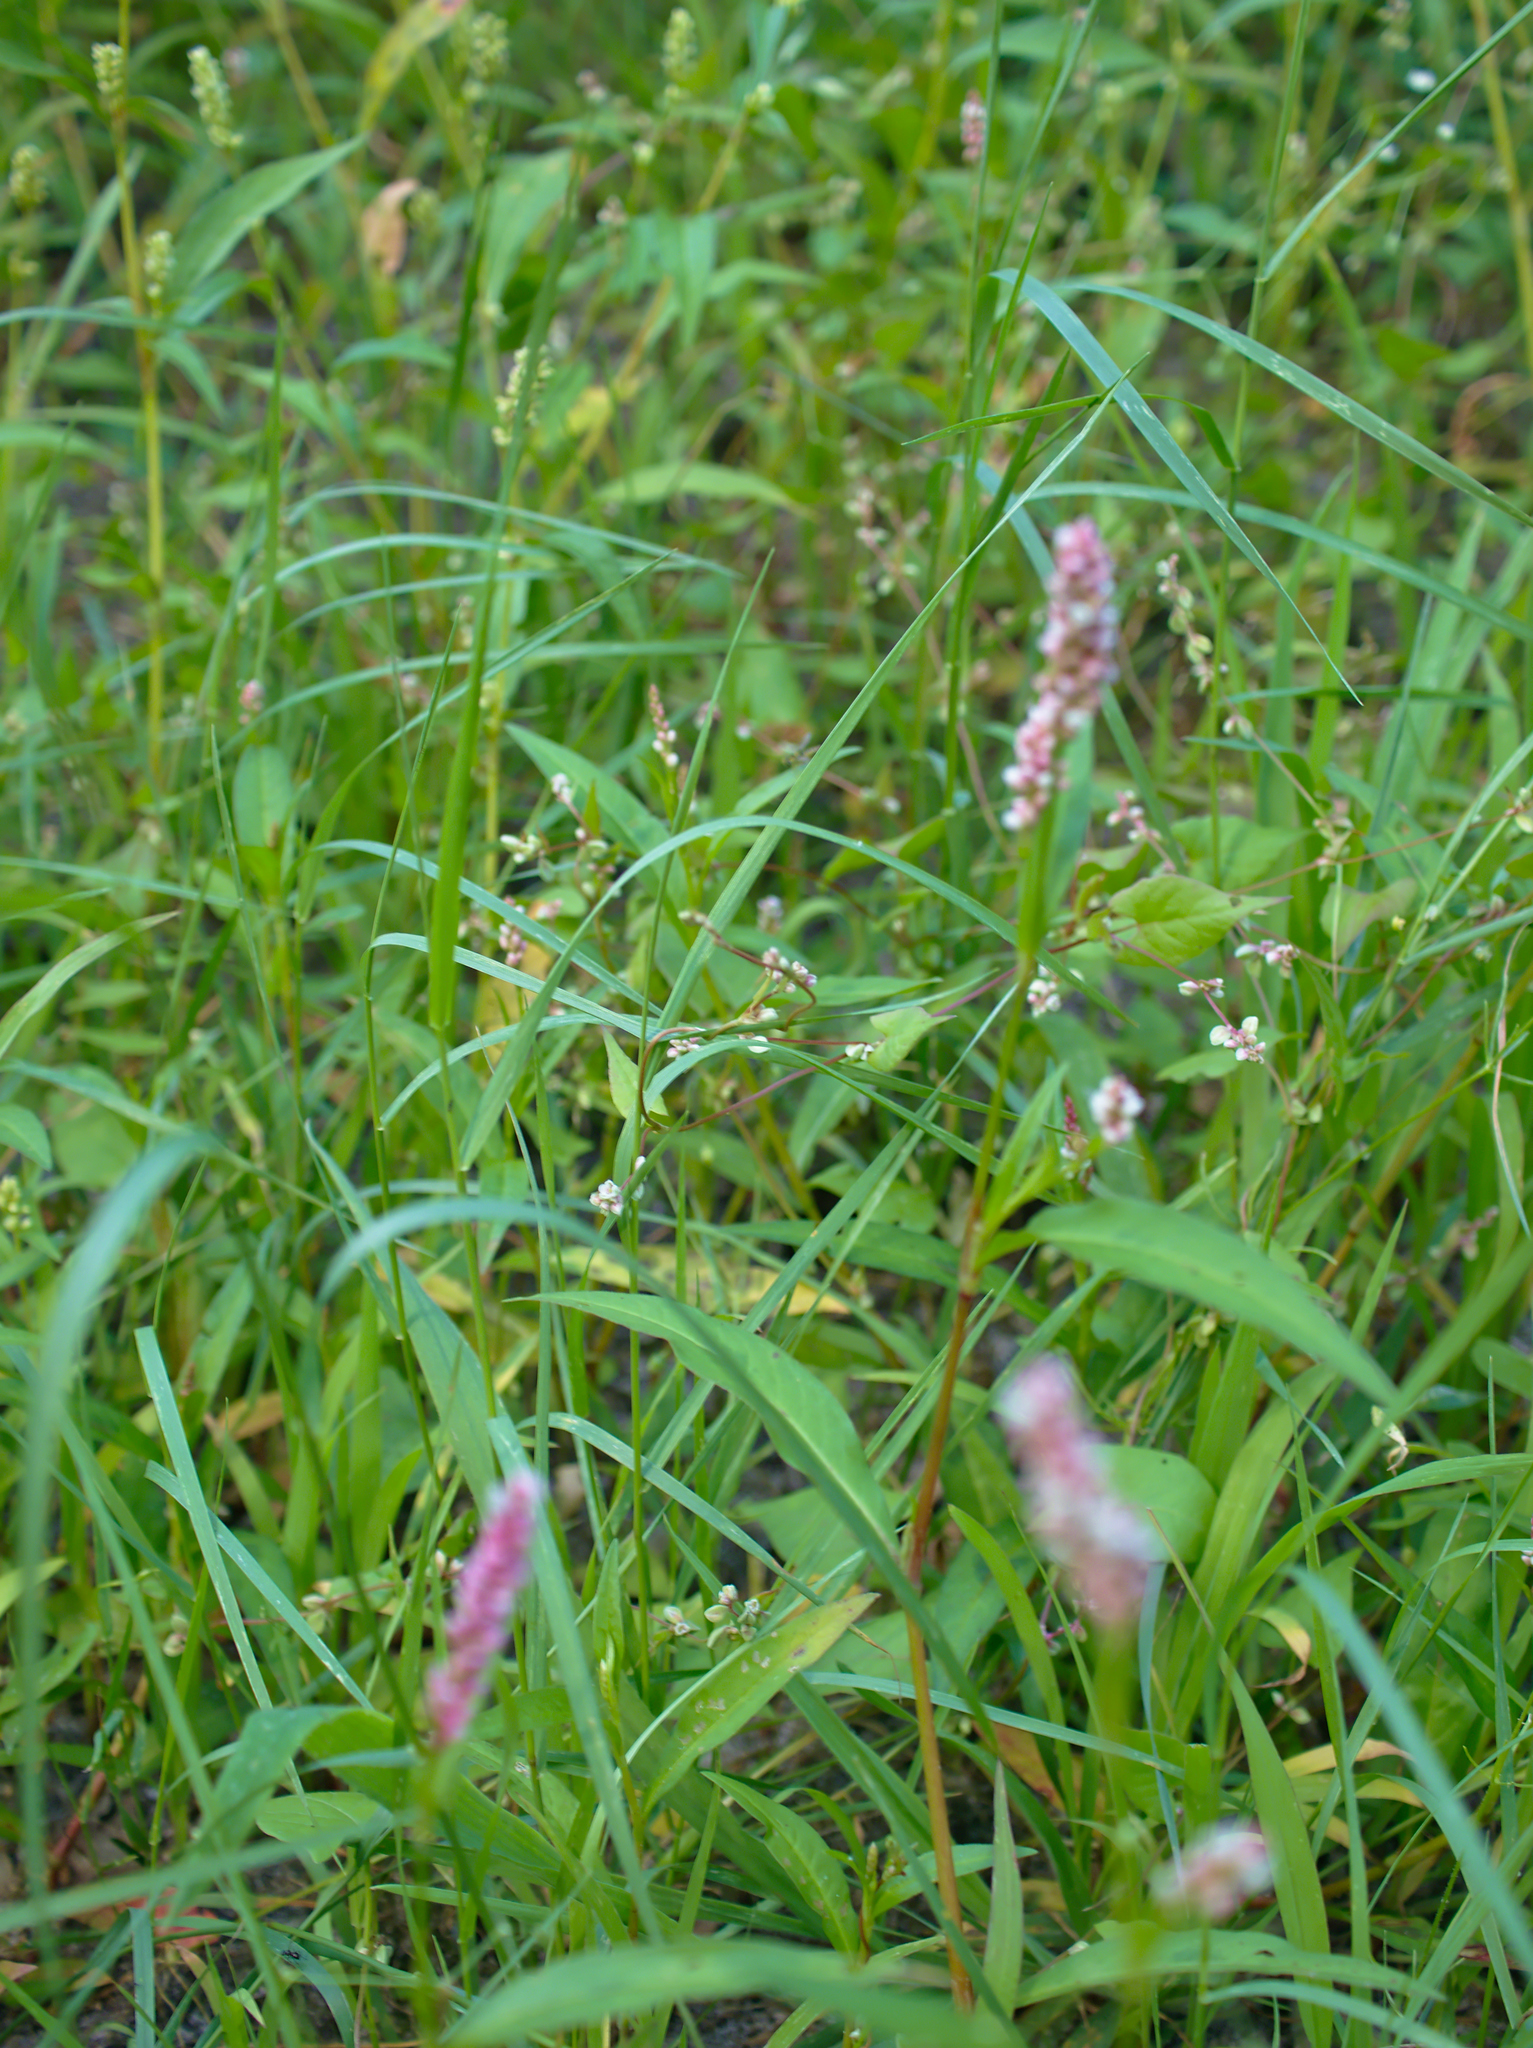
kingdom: Plantae
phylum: Tracheophyta
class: Magnoliopsida
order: Caryophyllales
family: Polygonaceae
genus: Persicaria
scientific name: Persicaria maculosa
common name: Redshank
